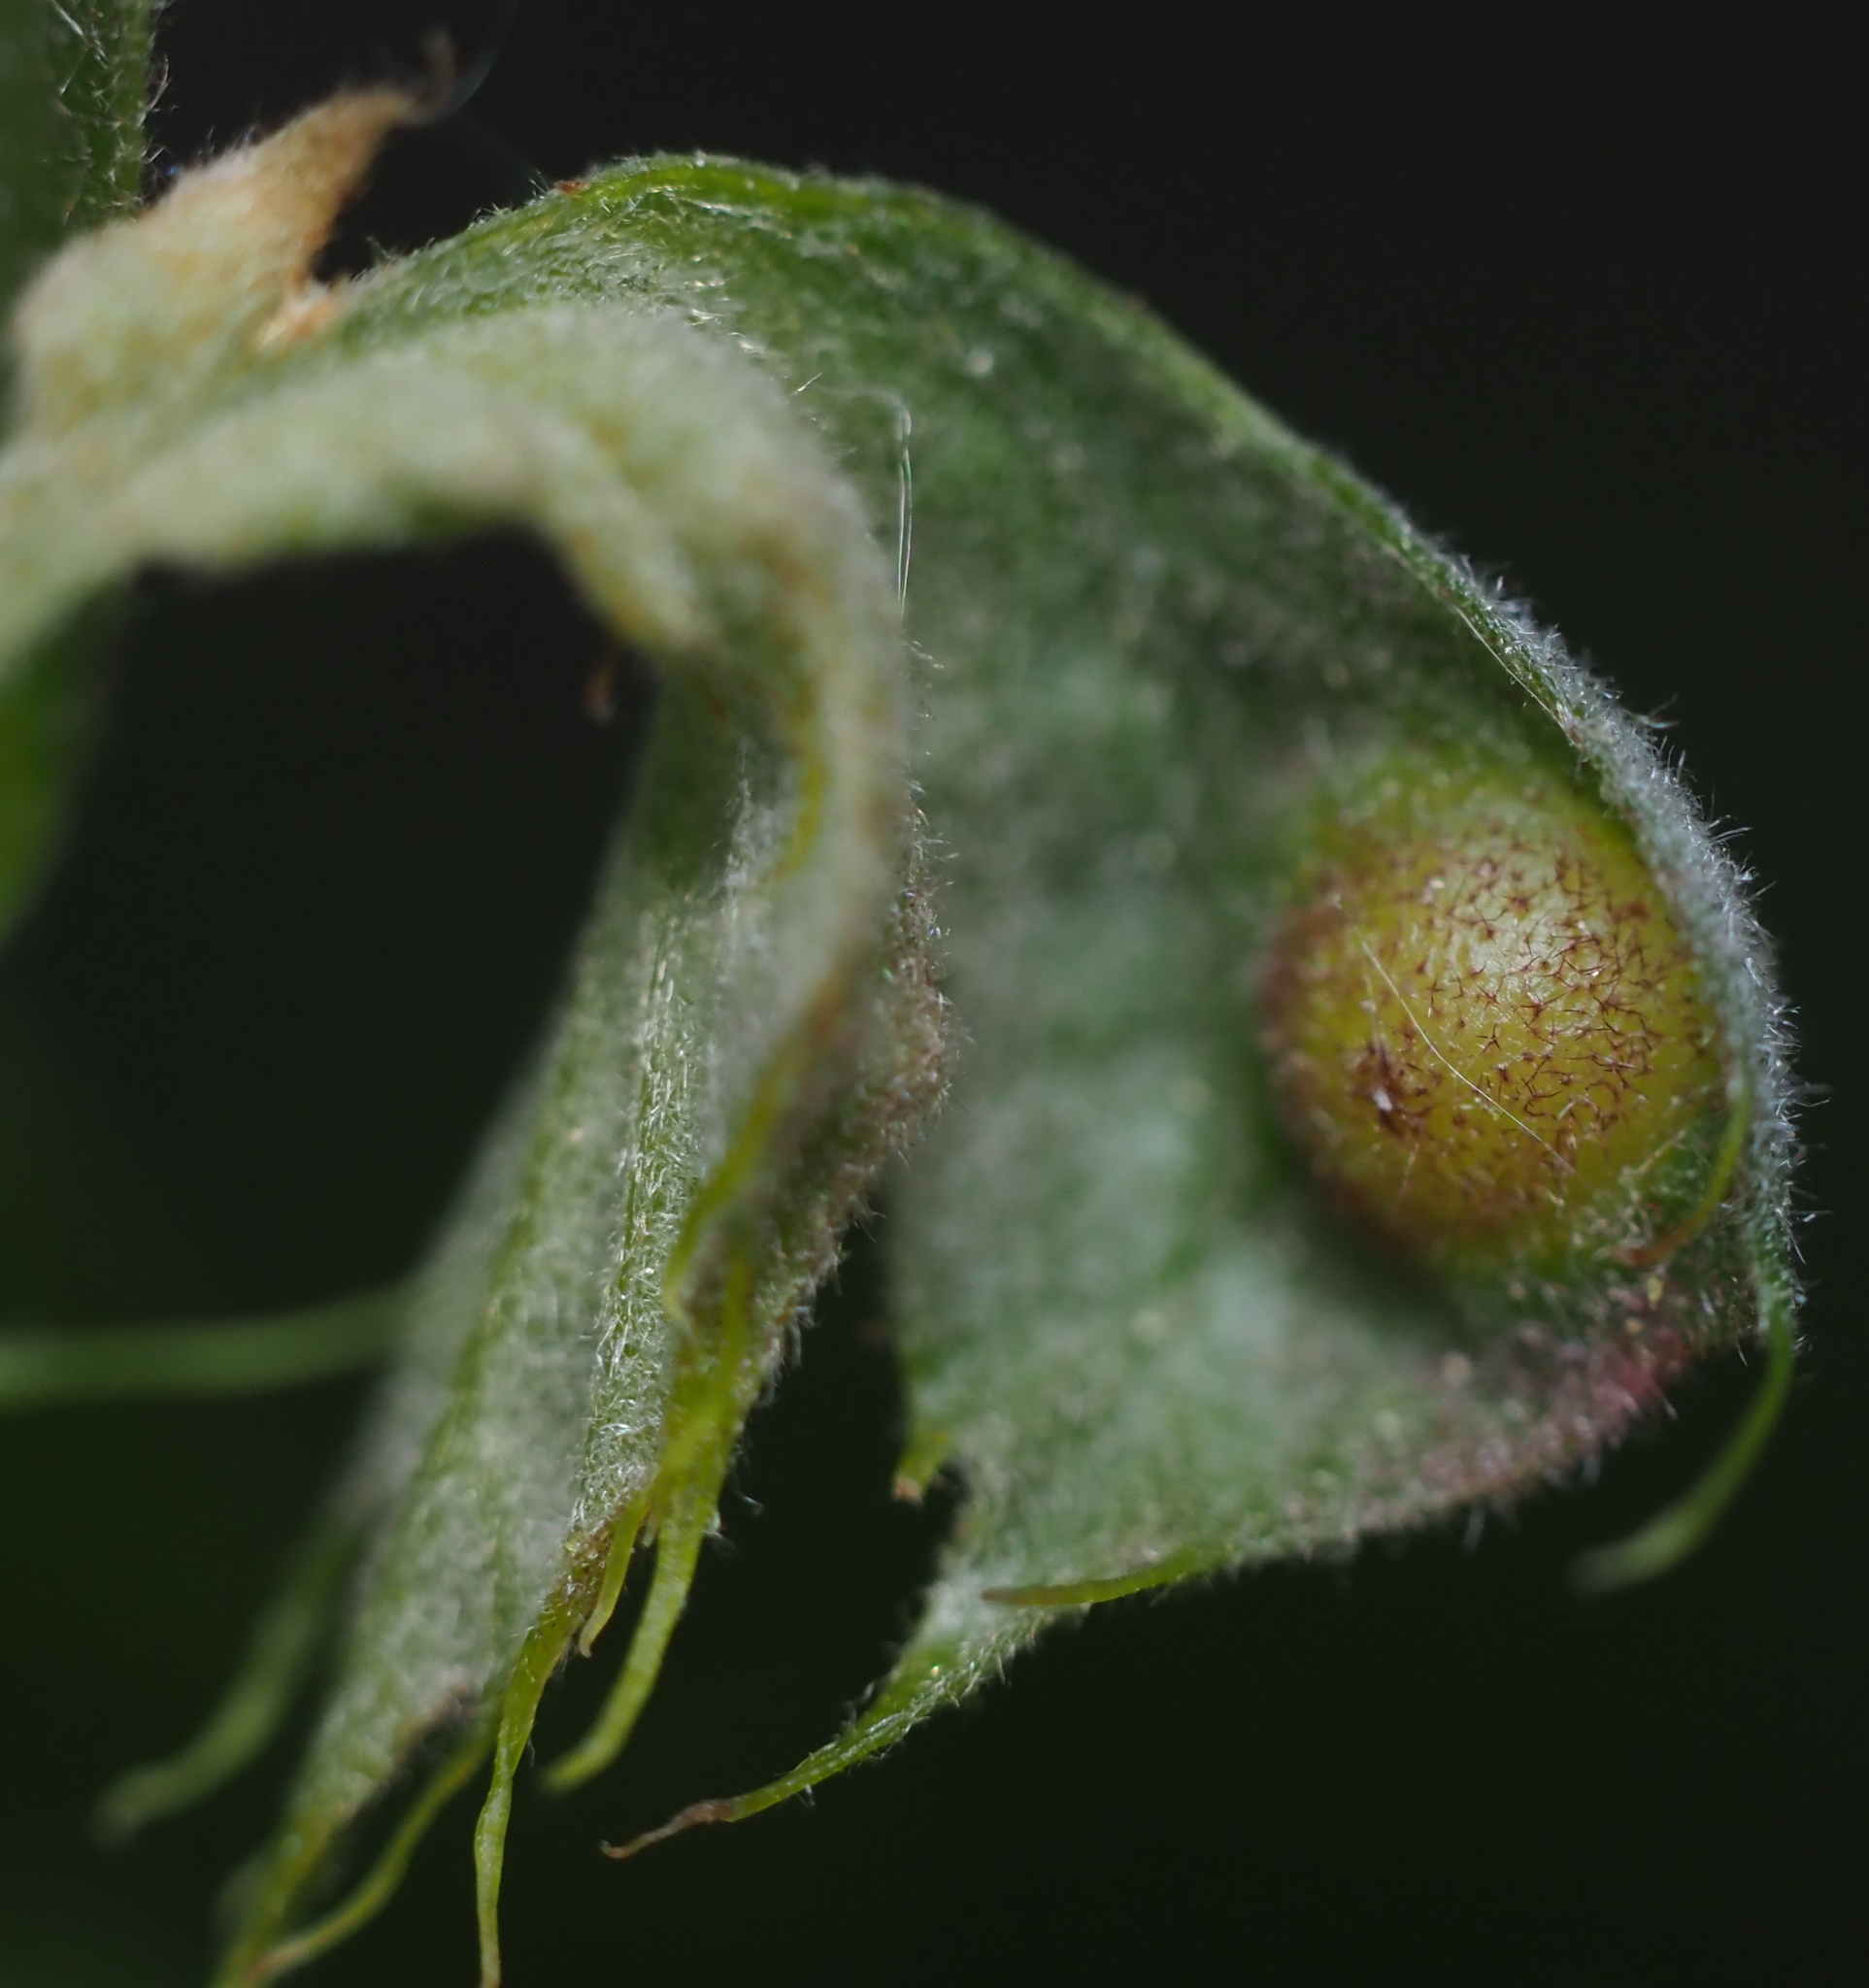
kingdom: Animalia
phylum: Arthropoda
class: Insecta
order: Hymenoptera
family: Cynipidae
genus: Amphibolips
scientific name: Amphibolips
